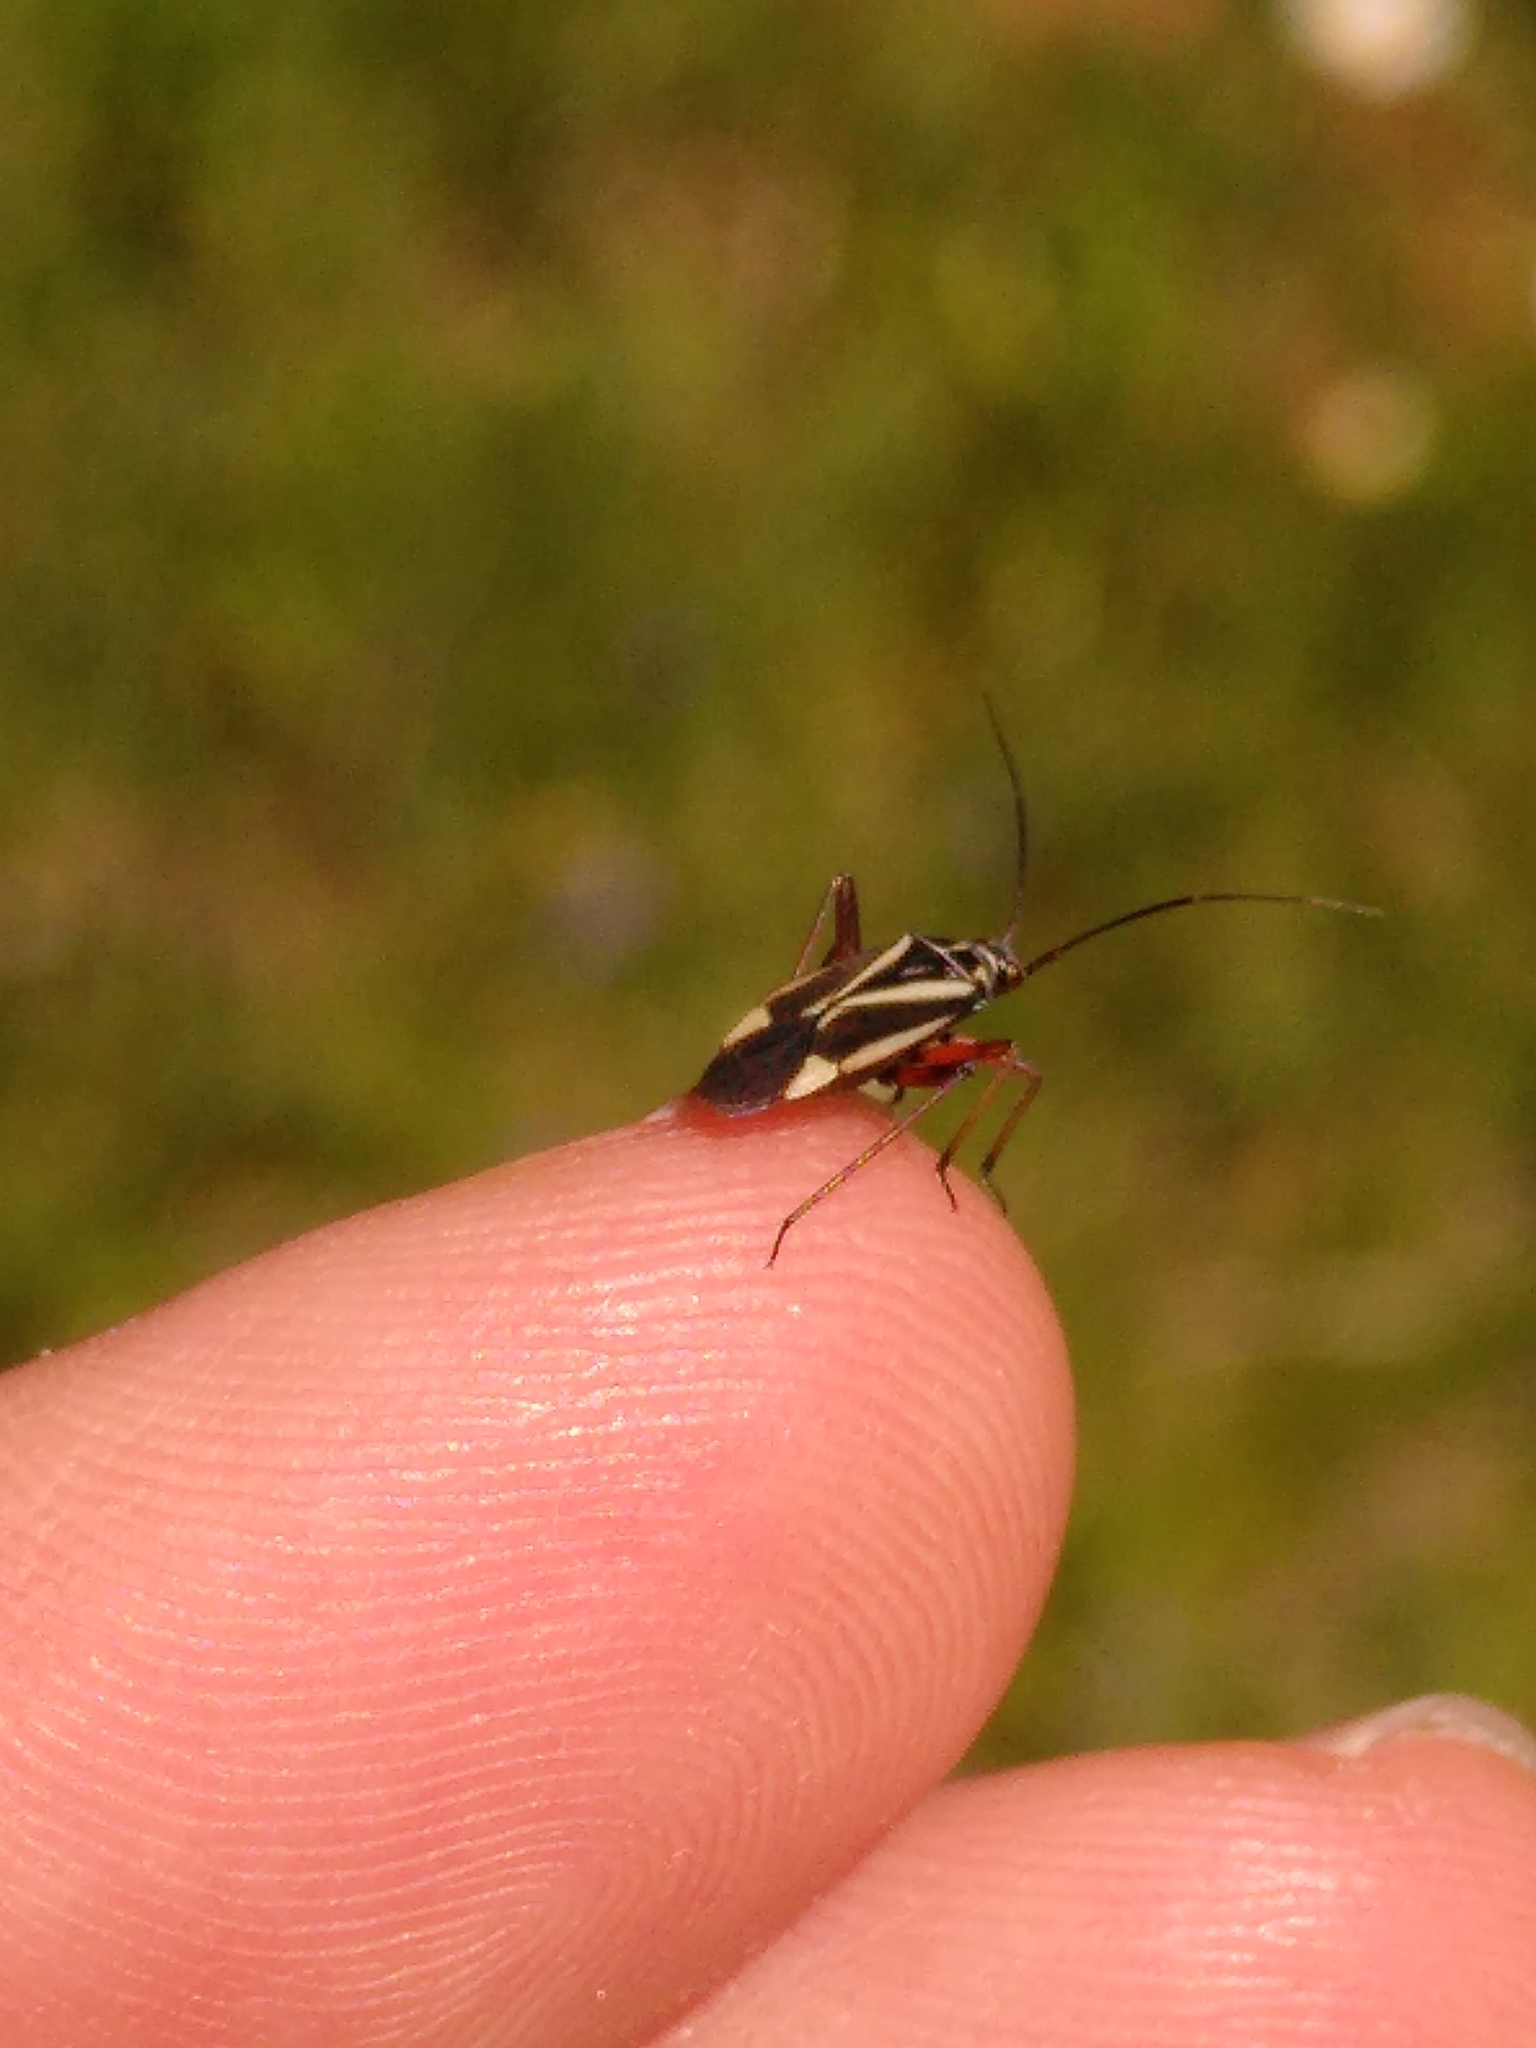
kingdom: Animalia
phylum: Arthropoda
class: Insecta
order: Hemiptera
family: Miridae
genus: Hadrodemus
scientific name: Hadrodemus m-flavum
